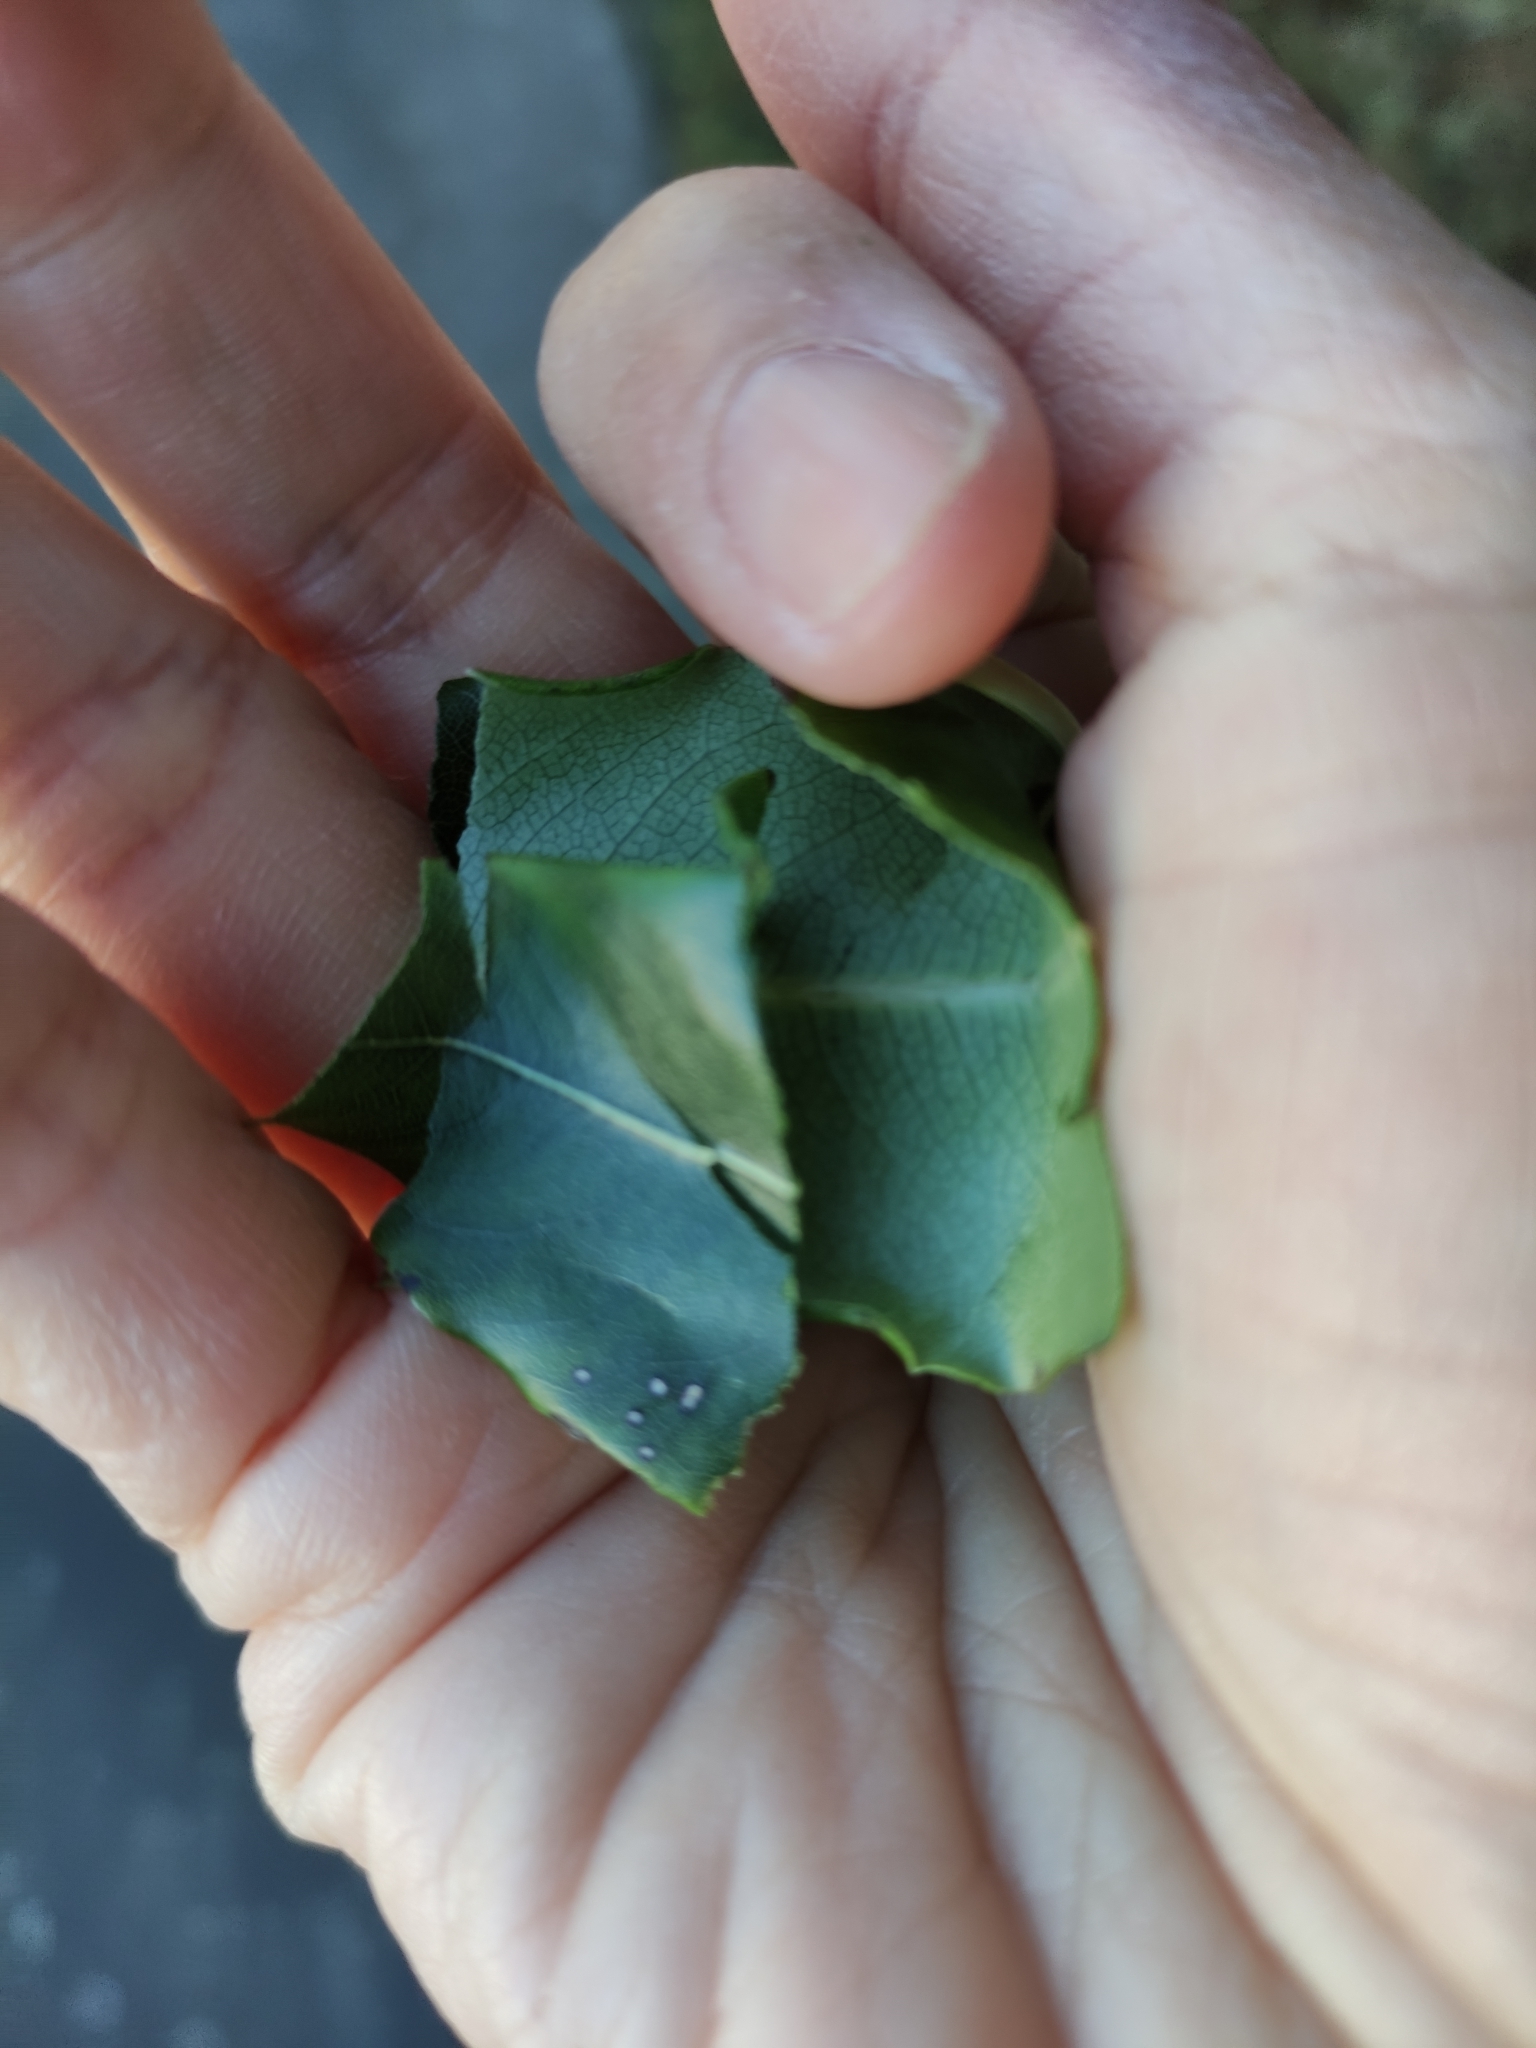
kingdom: Plantae
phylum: Tracheophyta
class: Magnoliopsida
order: Apiales
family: Pittosporaceae
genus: Pittosporum
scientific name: Pittosporum eugenioides
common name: Lemonwood
